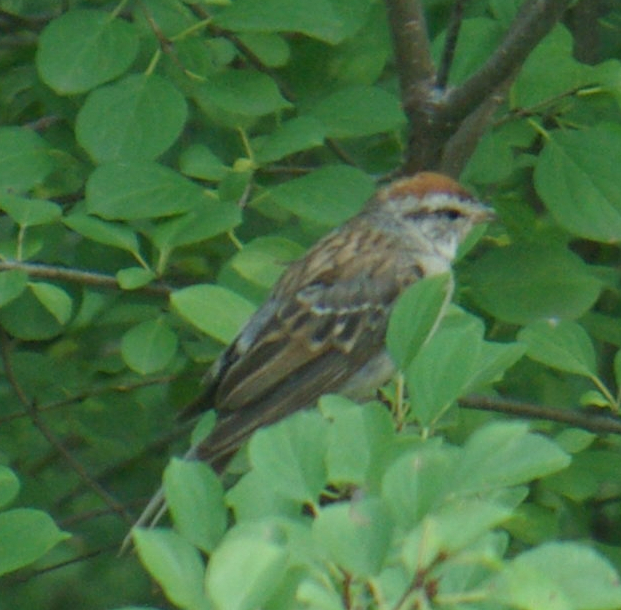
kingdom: Animalia
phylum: Chordata
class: Aves
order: Passeriformes
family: Passerellidae
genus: Spizella
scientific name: Spizella passerina
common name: Chipping sparrow
